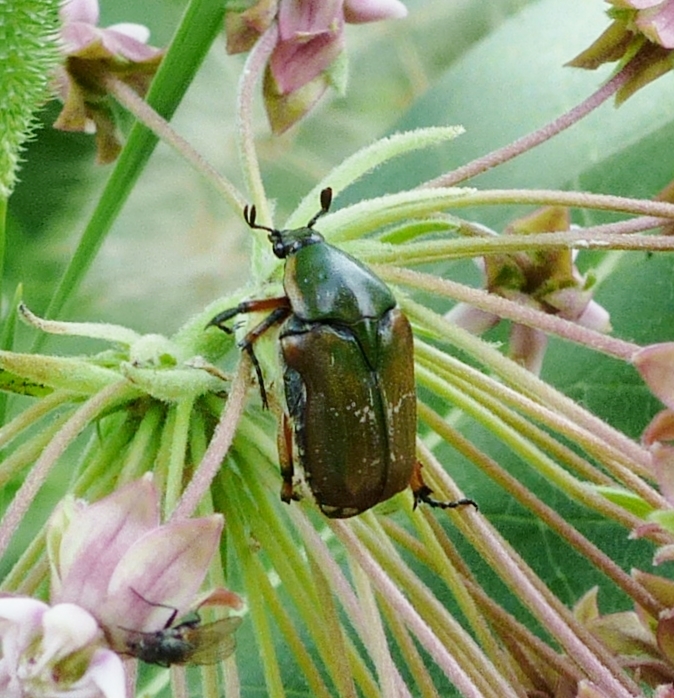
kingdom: Animalia
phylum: Arthropoda
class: Insecta
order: Coleoptera
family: Scarabaeidae
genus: Euphoria
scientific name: Euphoria fulgida
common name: Emerald euphoria
